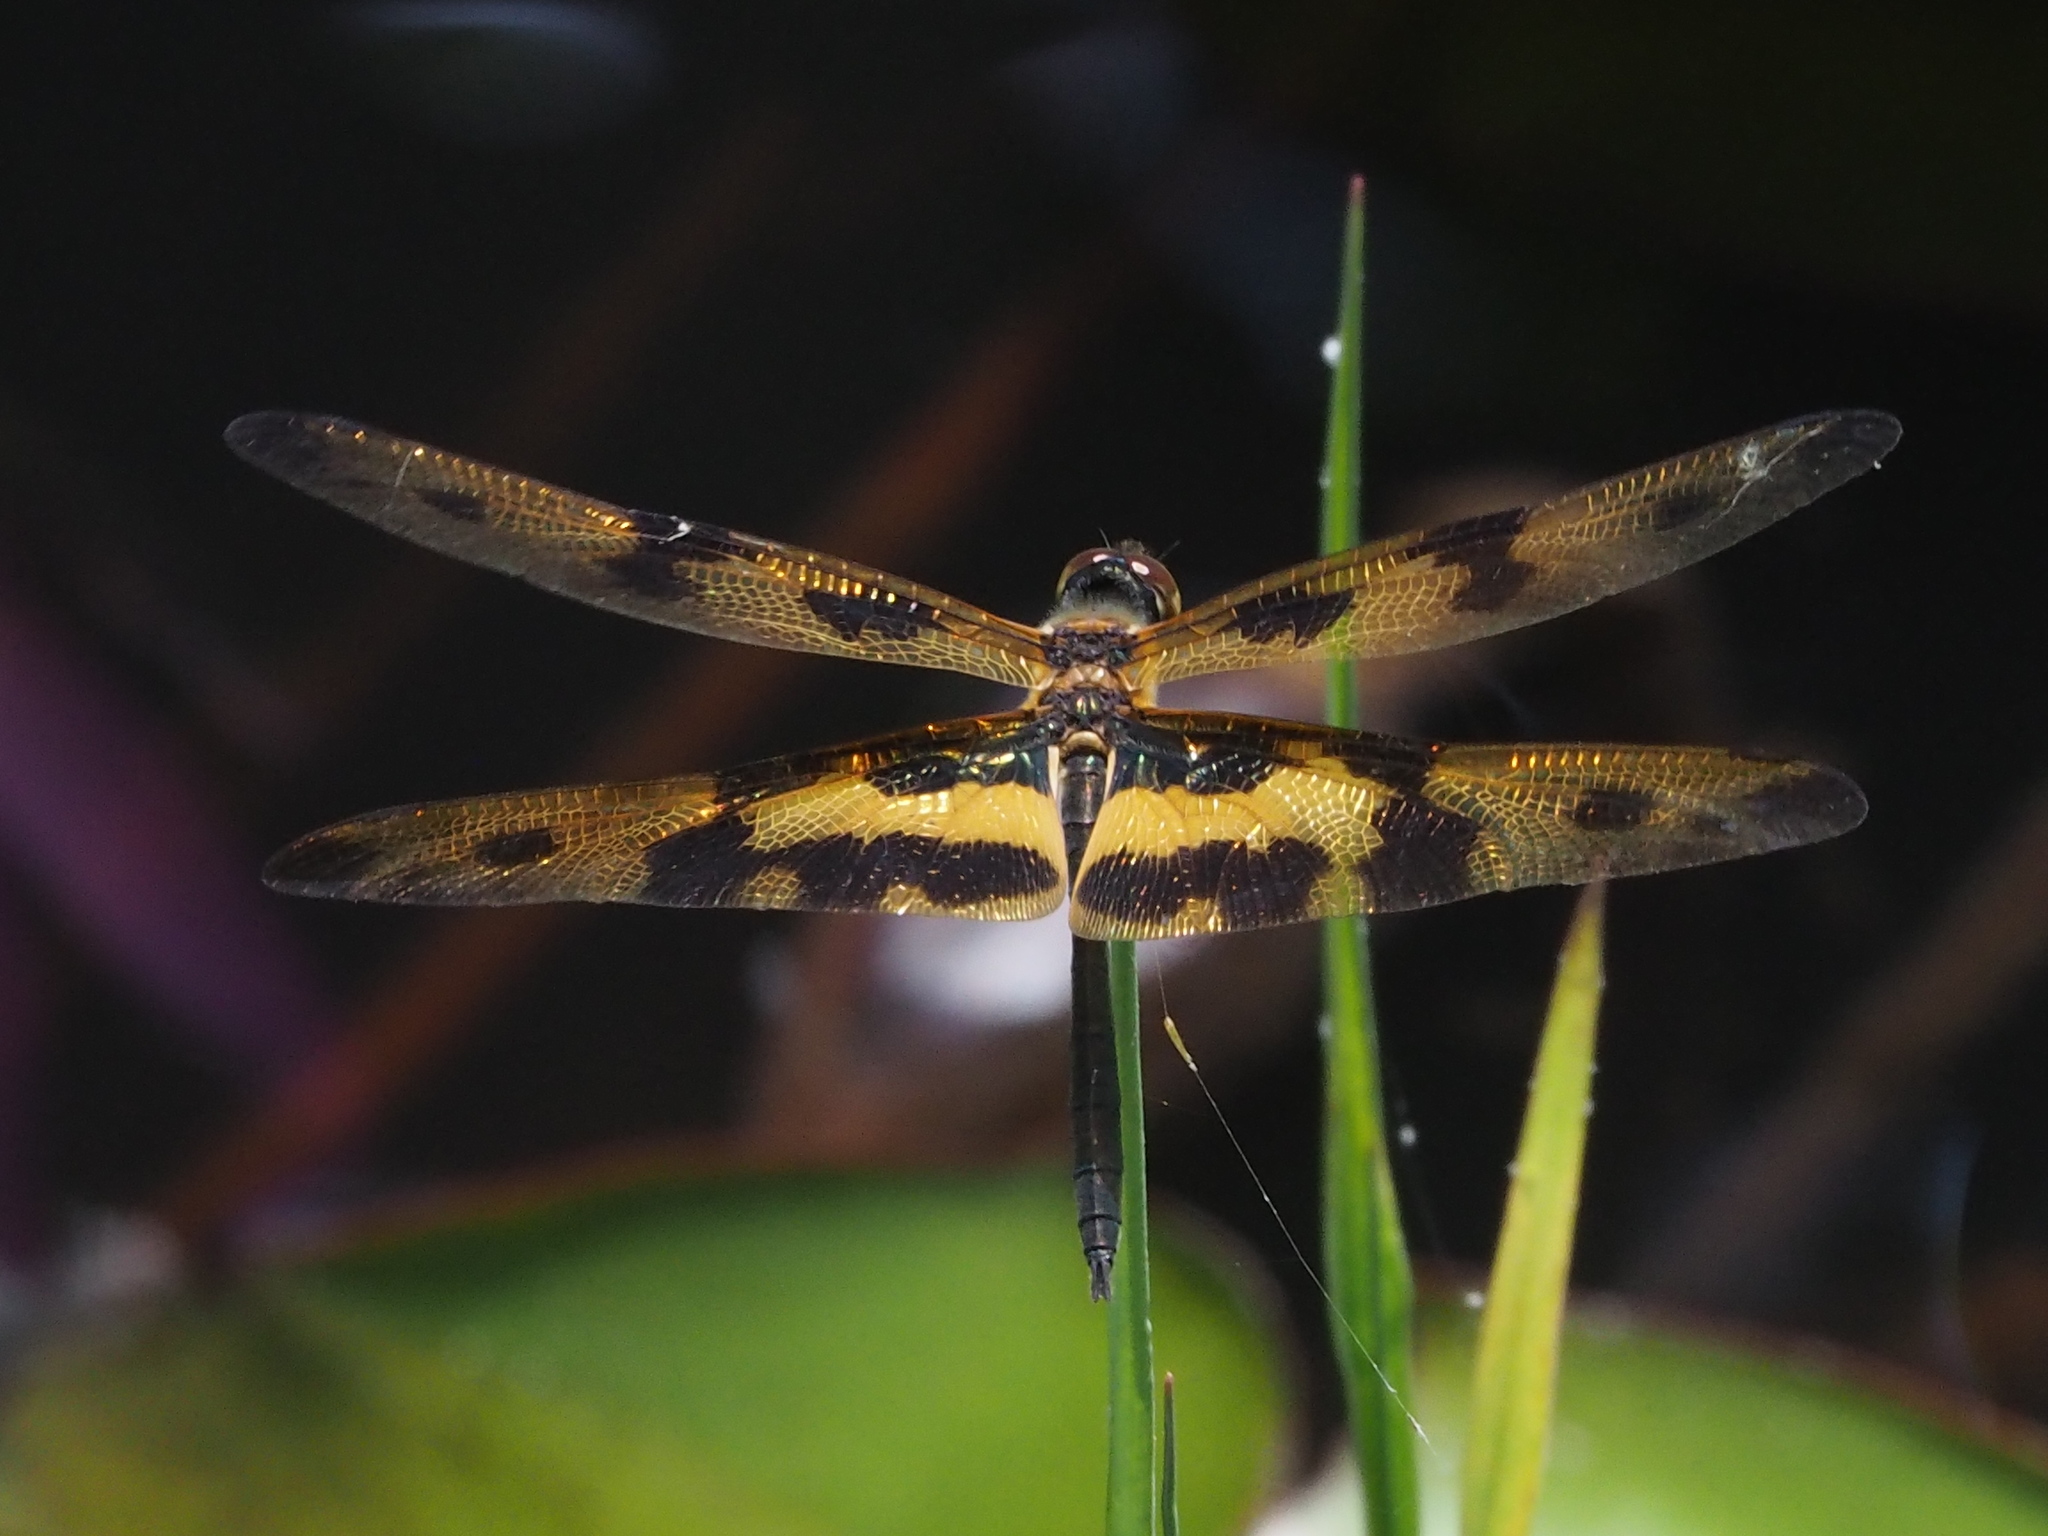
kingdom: Animalia
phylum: Arthropoda
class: Insecta
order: Odonata
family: Libellulidae
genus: Rhyothemis
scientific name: Rhyothemis variegata
